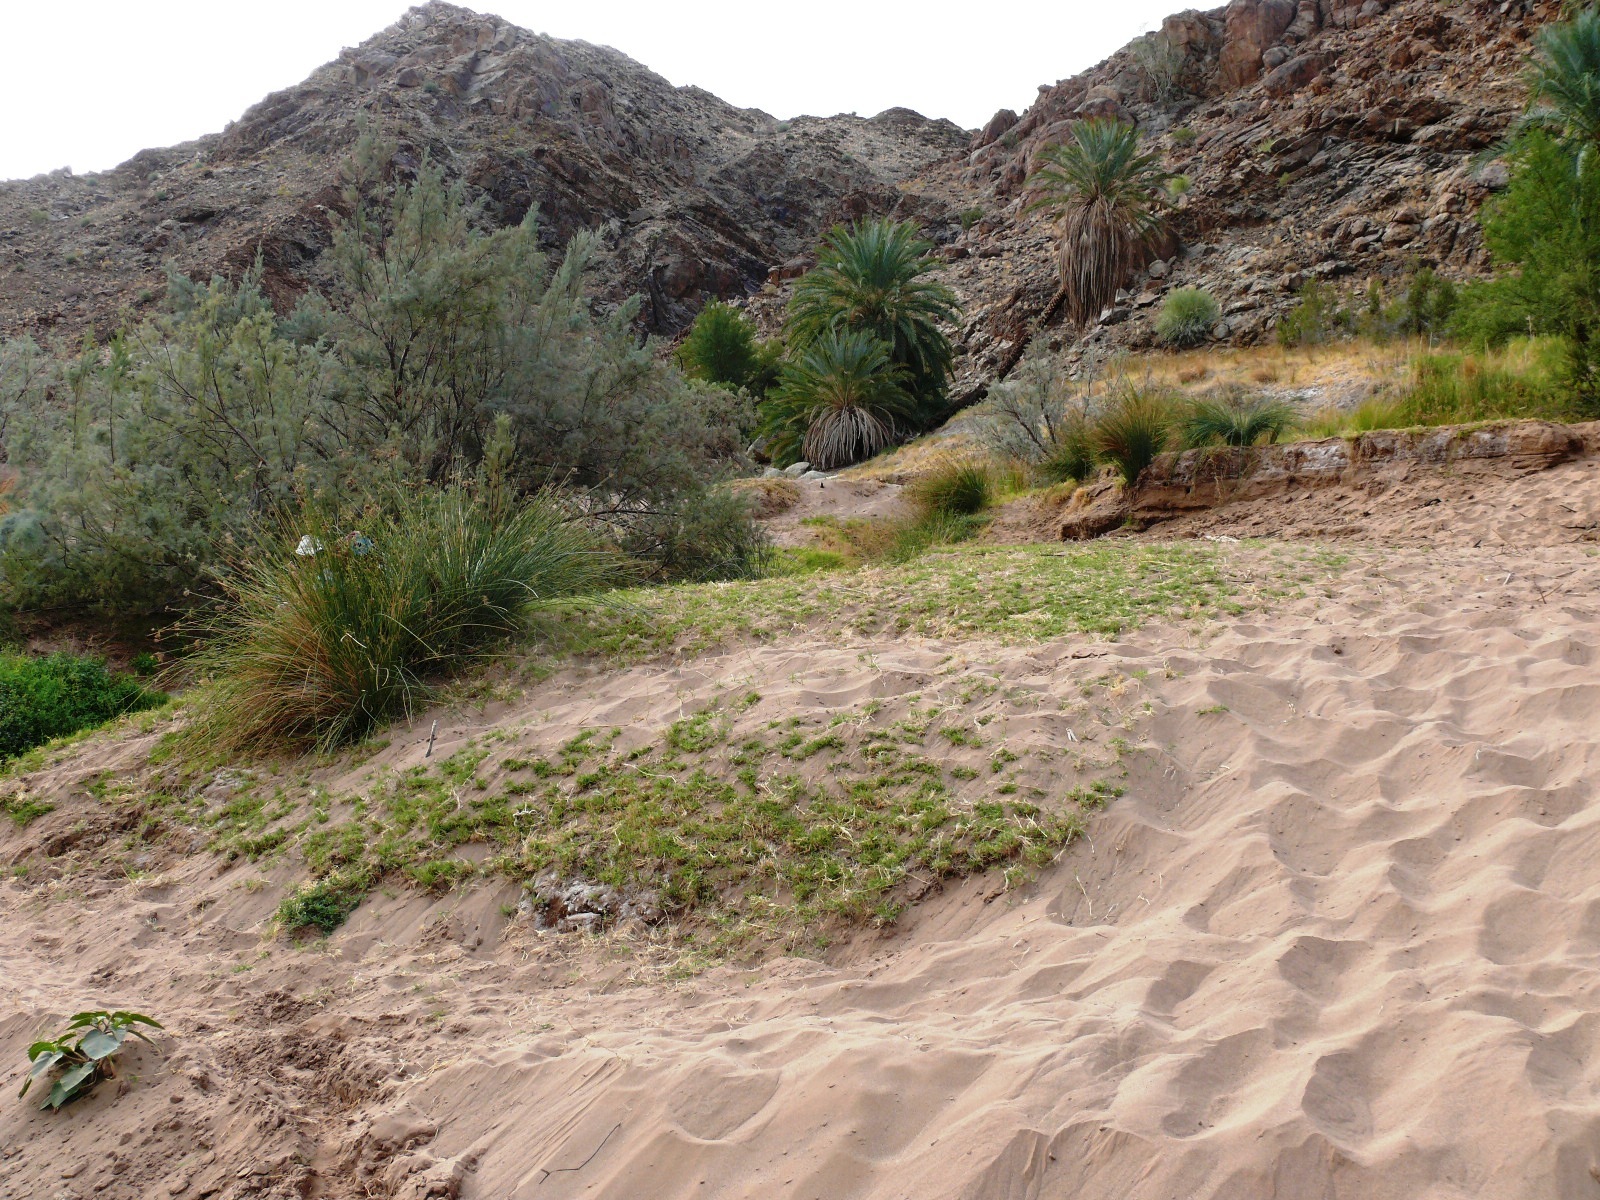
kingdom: Plantae
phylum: Tracheophyta
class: Liliopsida
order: Arecales
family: Arecaceae
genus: Phoenix
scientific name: Phoenix dactylifera
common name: Date palm
